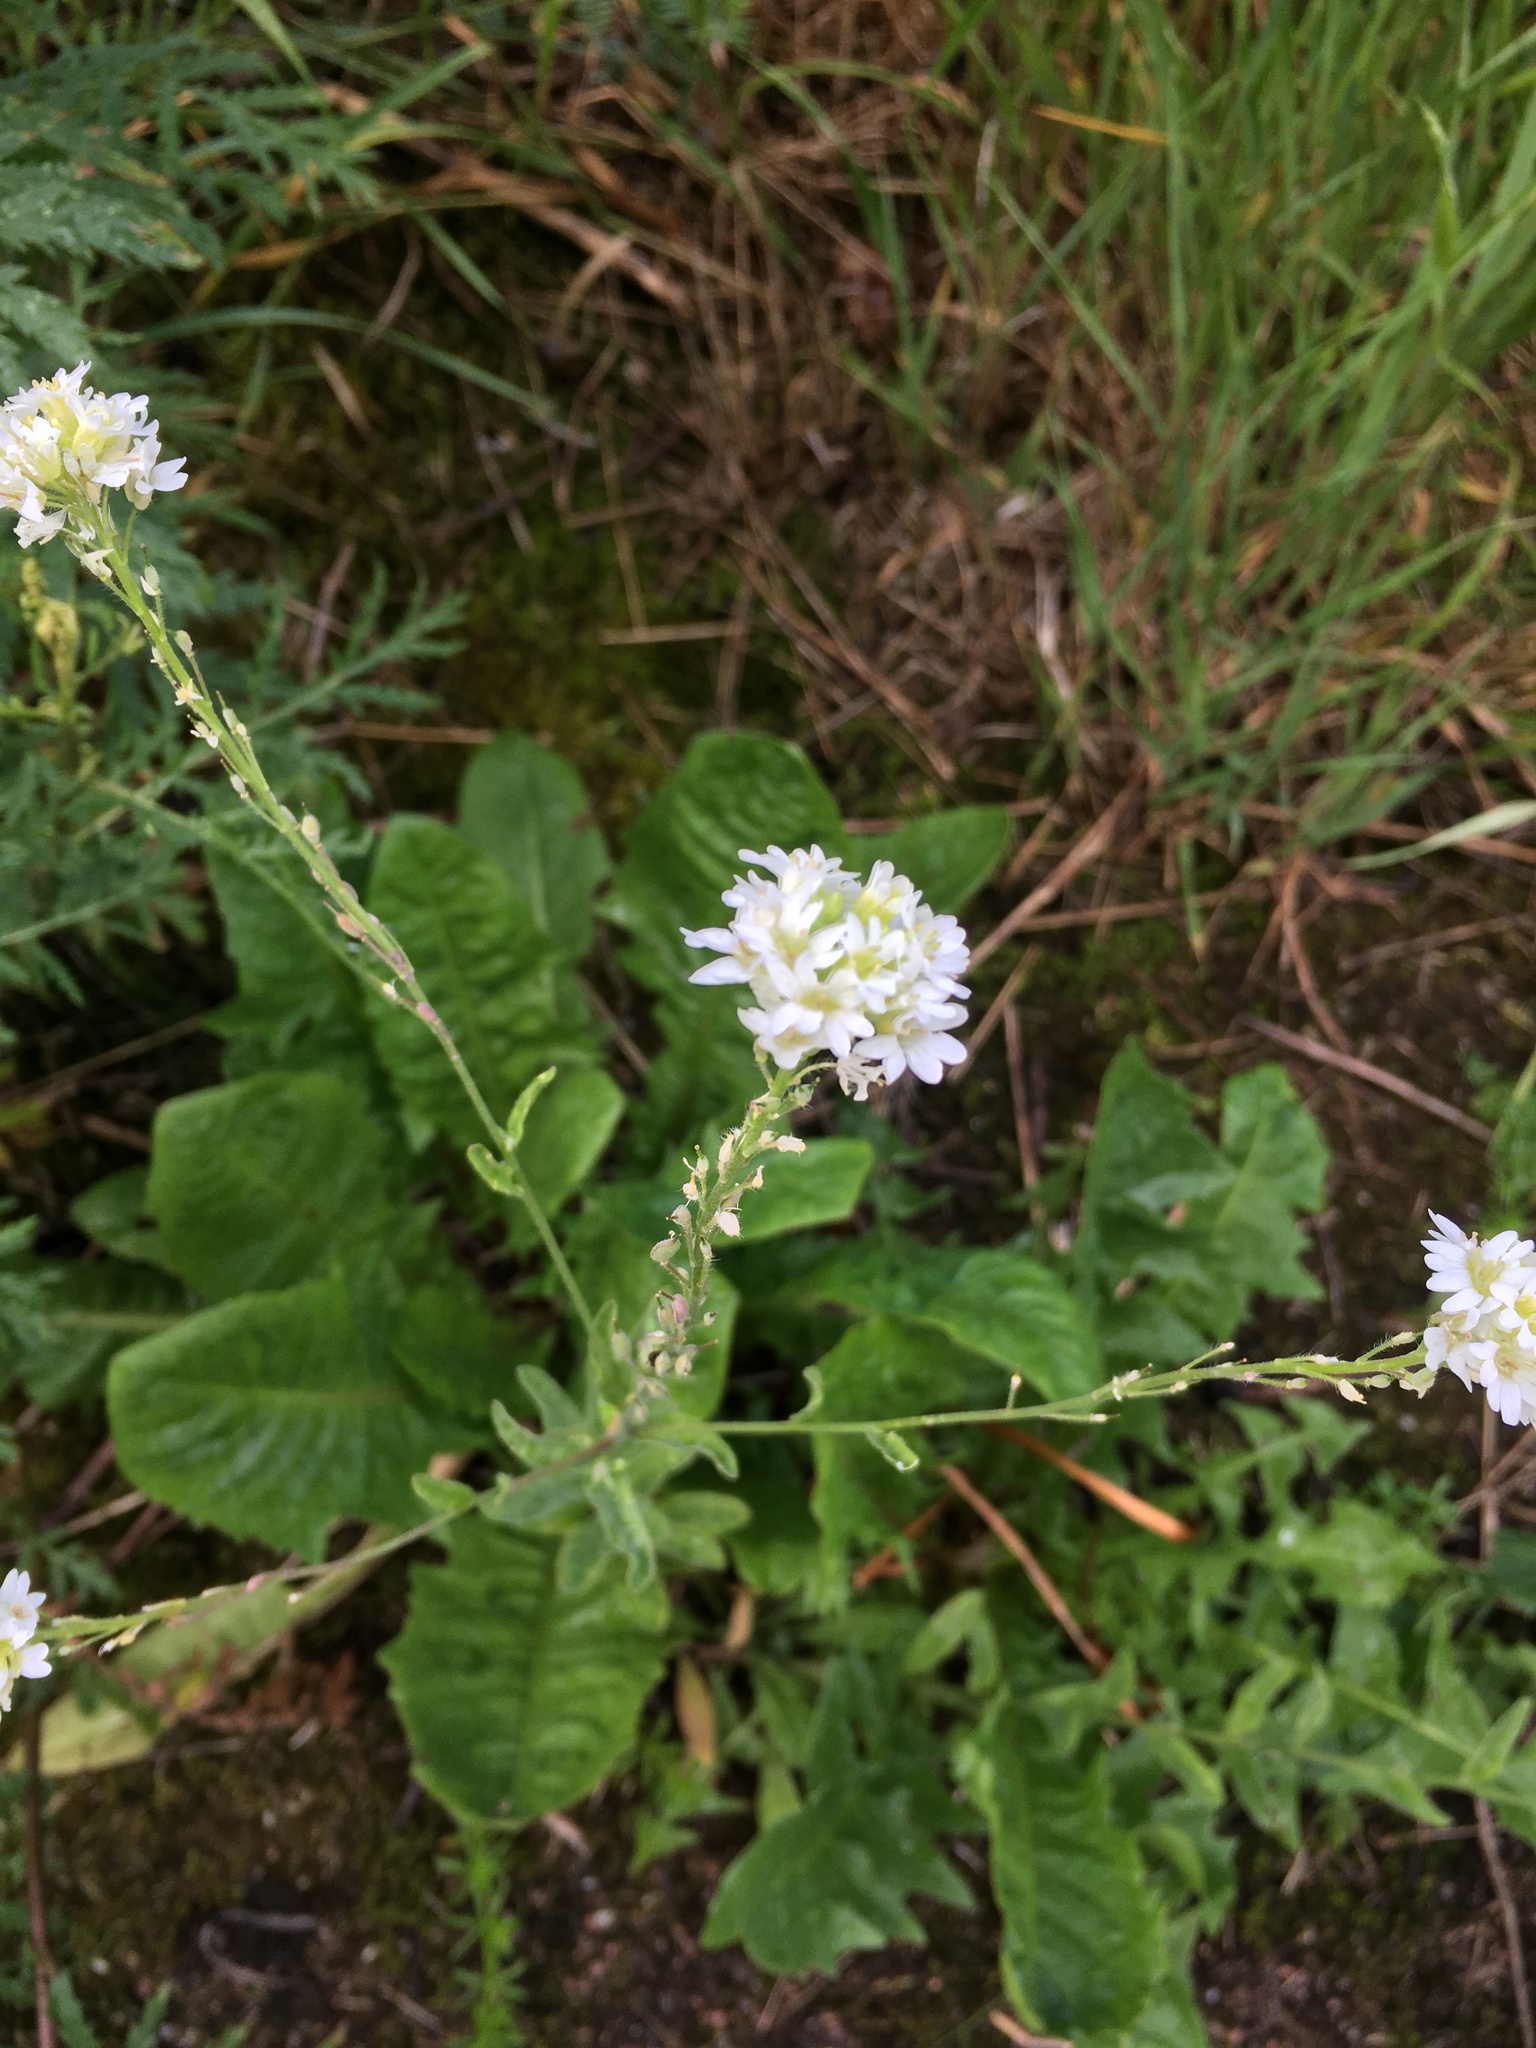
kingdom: Plantae
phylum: Tracheophyta
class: Magnoliopsida
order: Brassicales
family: Brassicaceae
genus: Berteroa
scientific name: Berteroa incana
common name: Hoary alison
